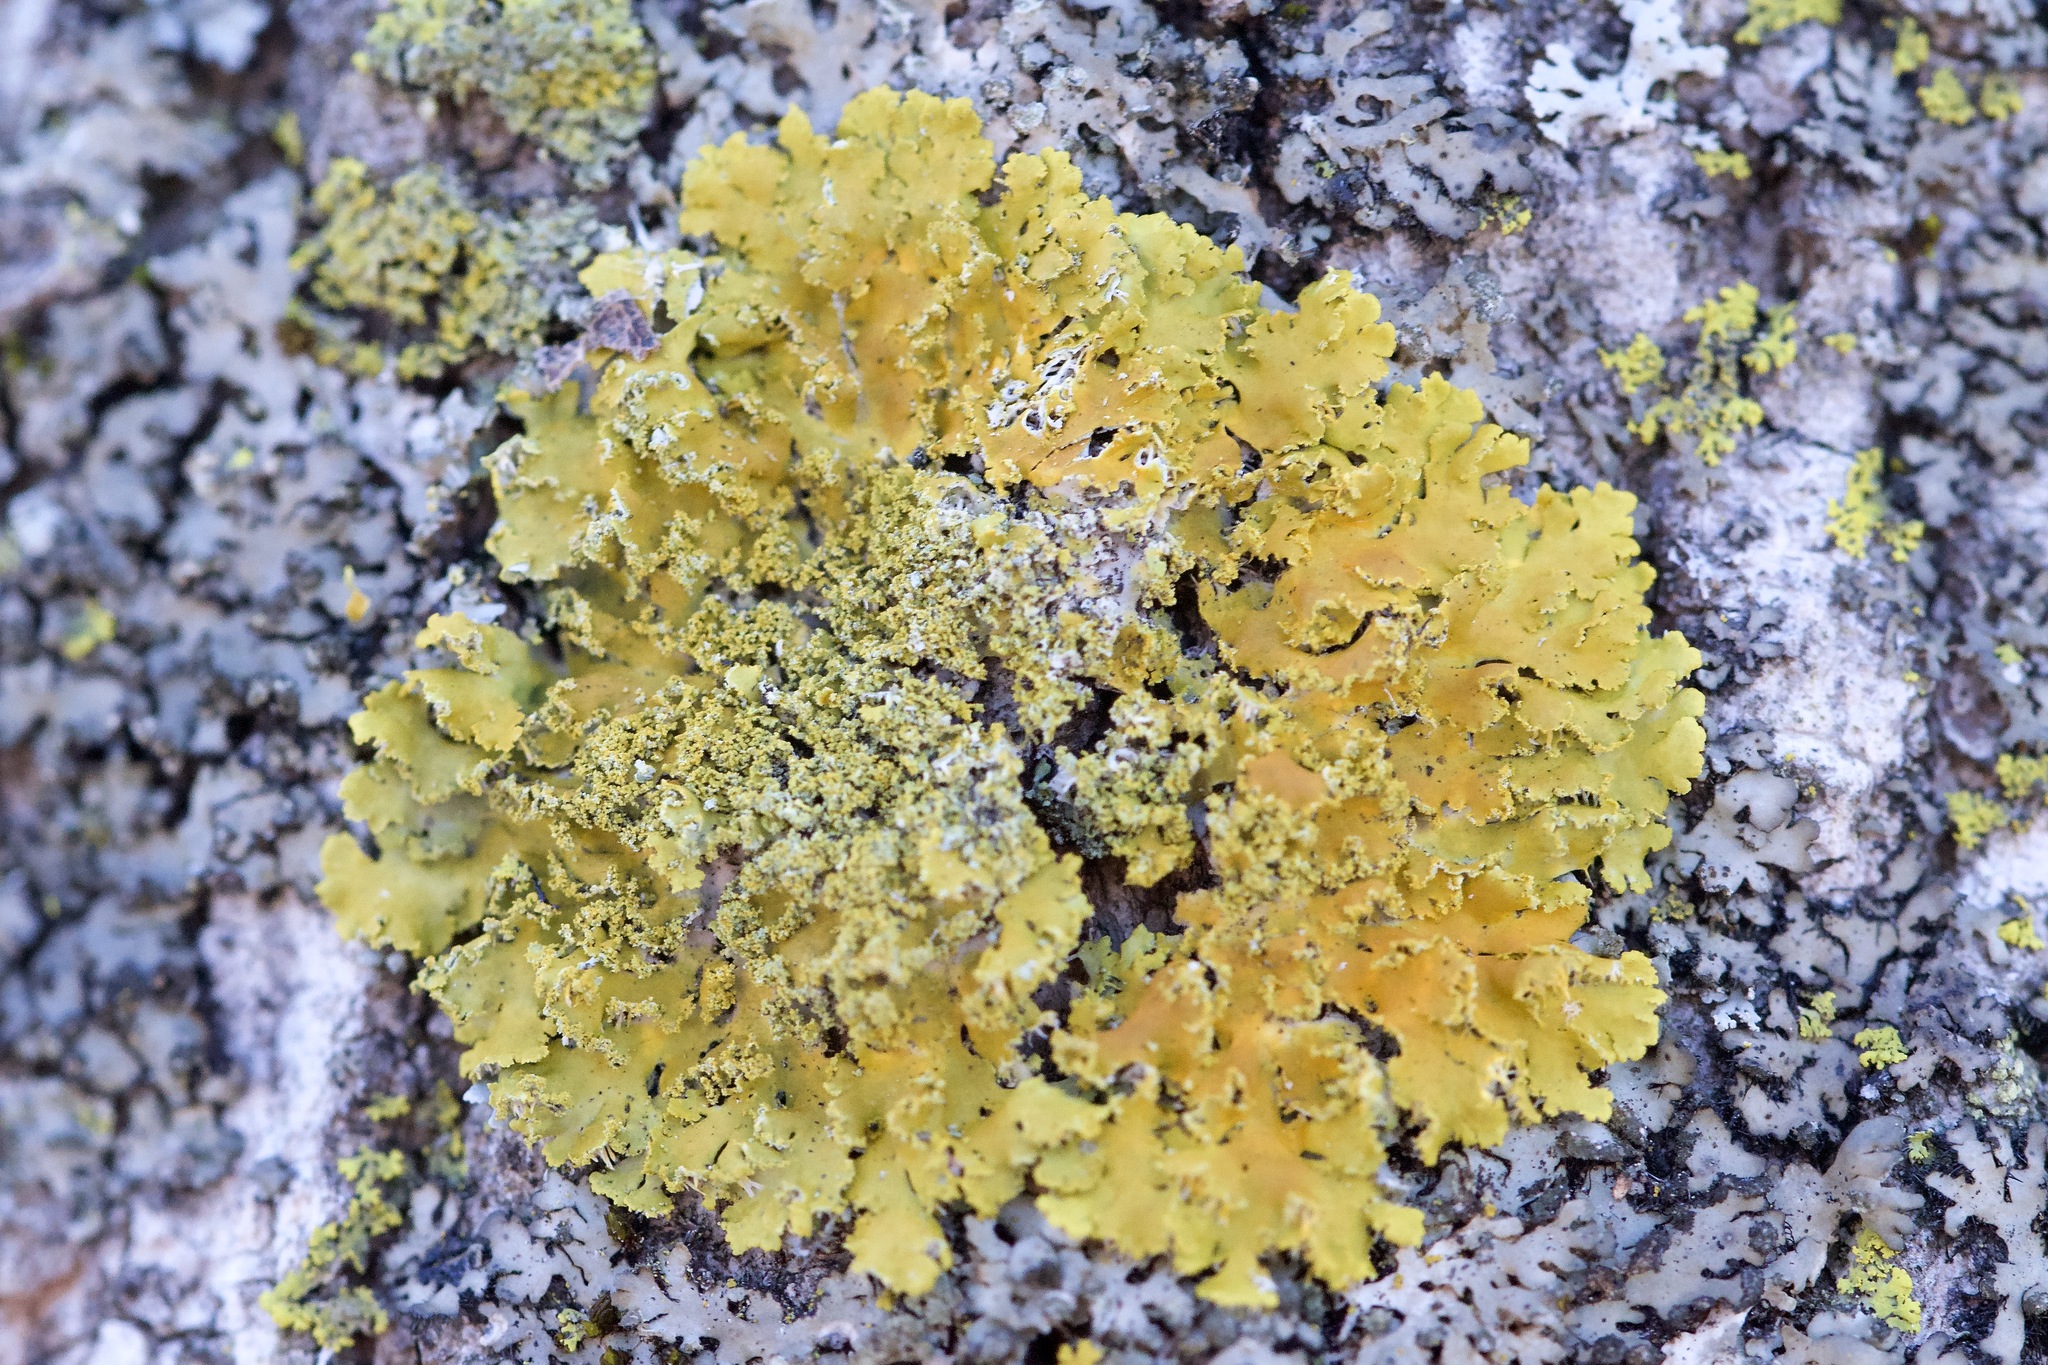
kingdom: Fungi
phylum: Ascomycota
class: Lecanoromycetes
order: Teloschistales
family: Teloschistaceae
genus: Xanthoria
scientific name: Xanthoria ulophyllodes
